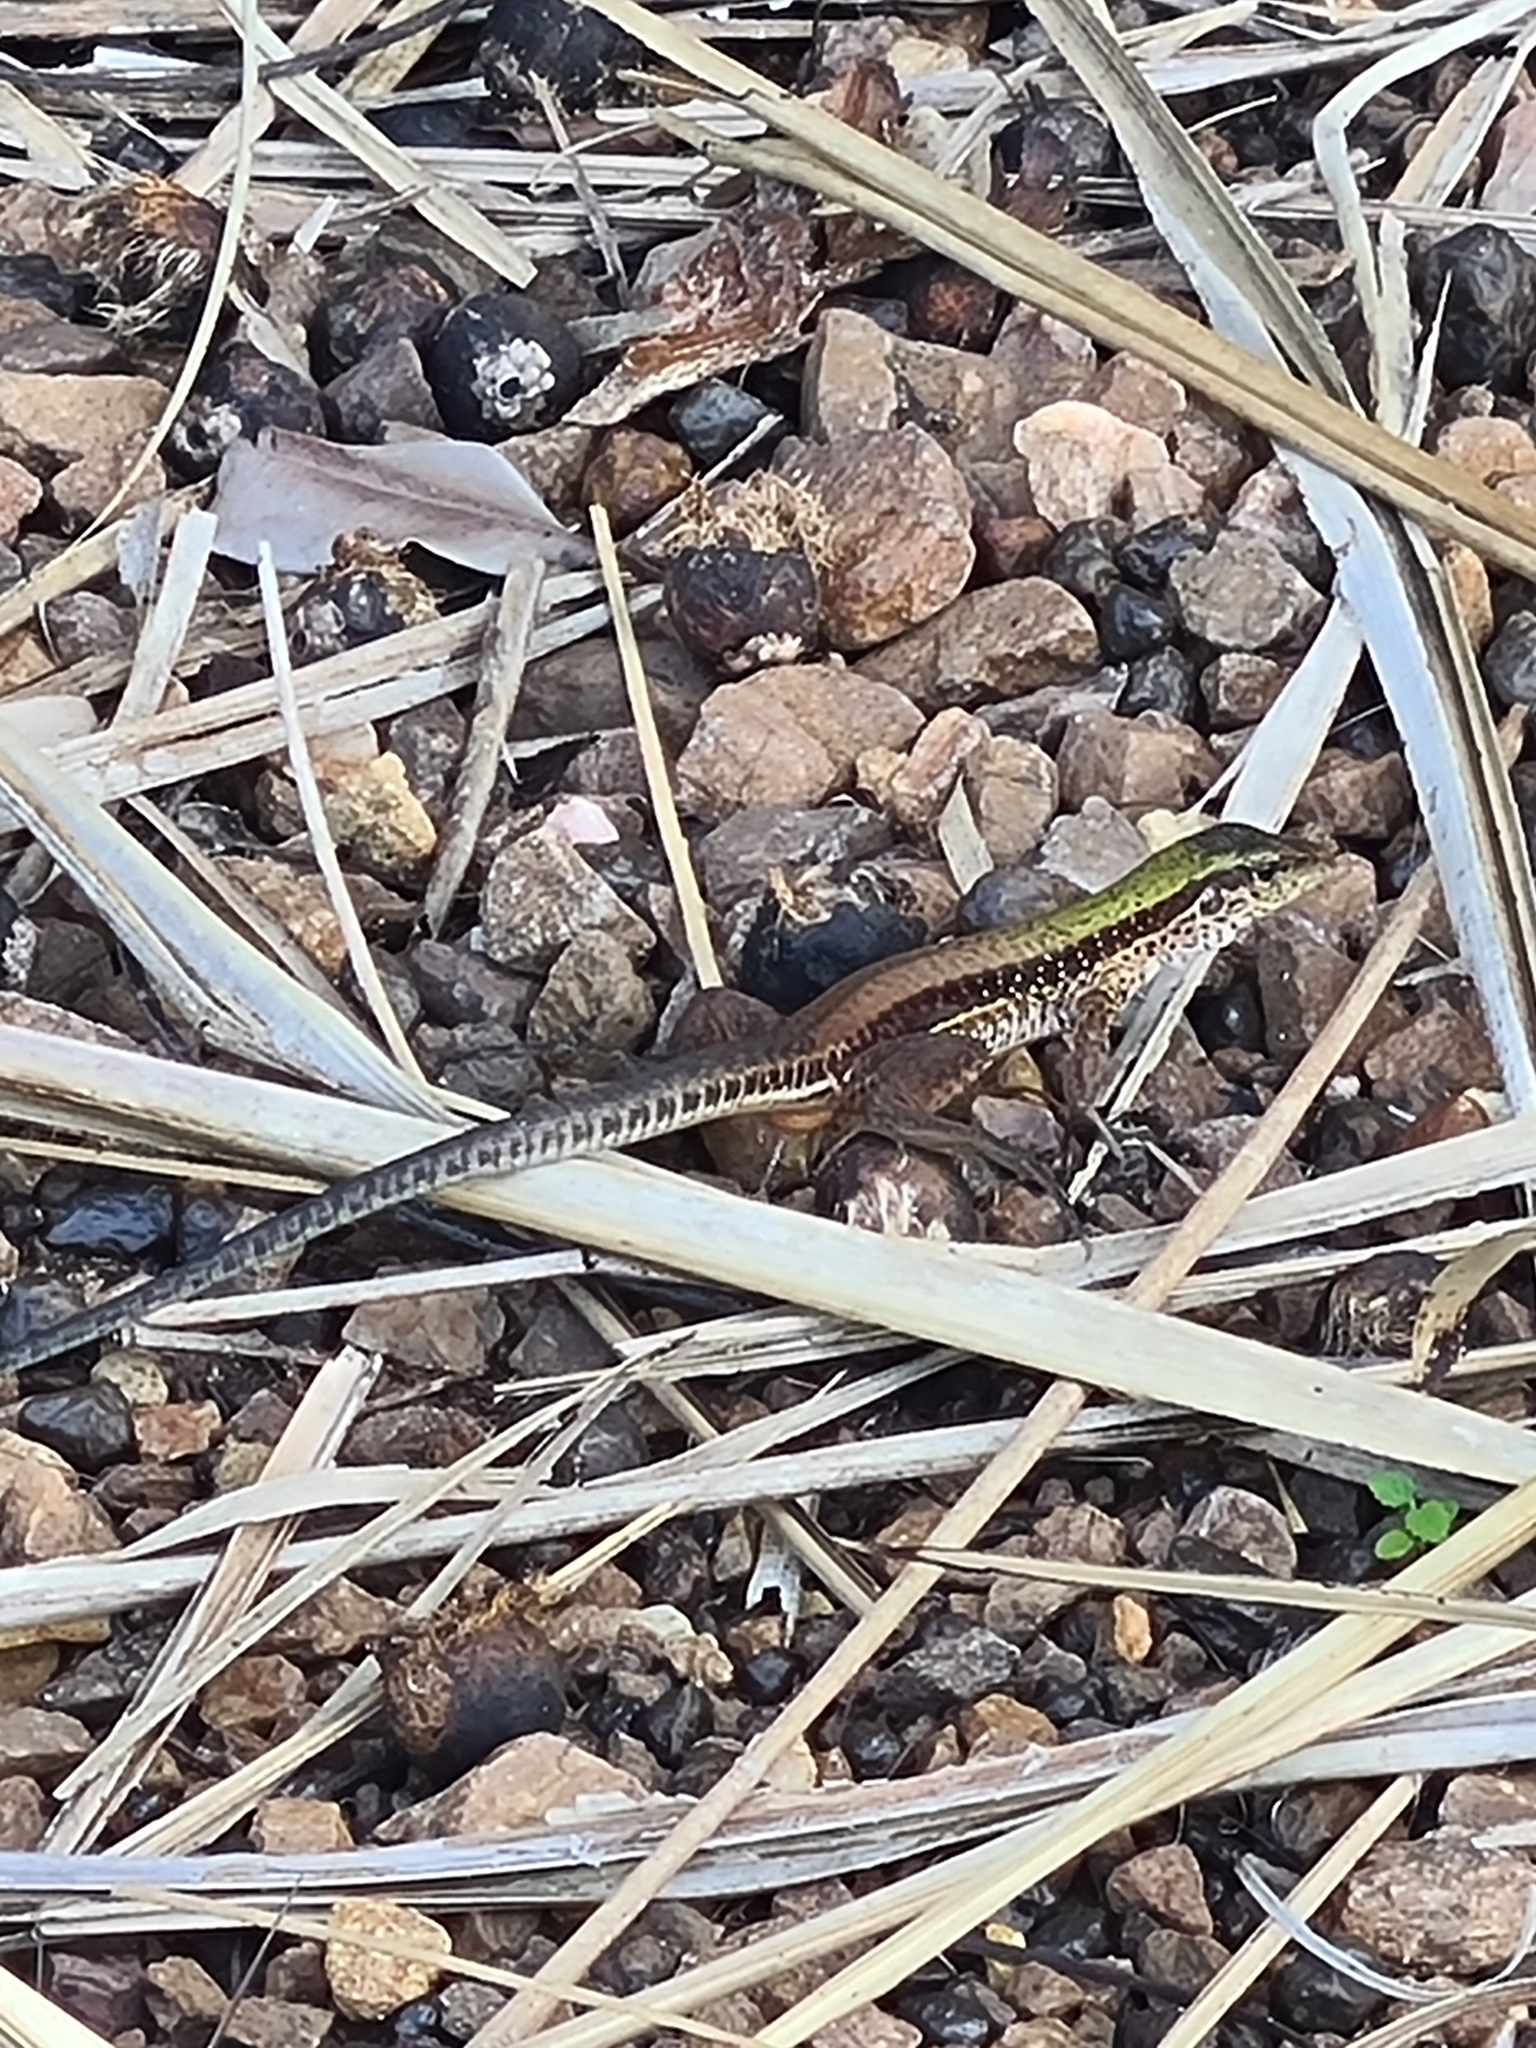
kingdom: Animalia
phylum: Chordata
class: Squamata
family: Teiidae
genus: Ameiva
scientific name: Ameiva ameiva
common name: Giant ameiva
